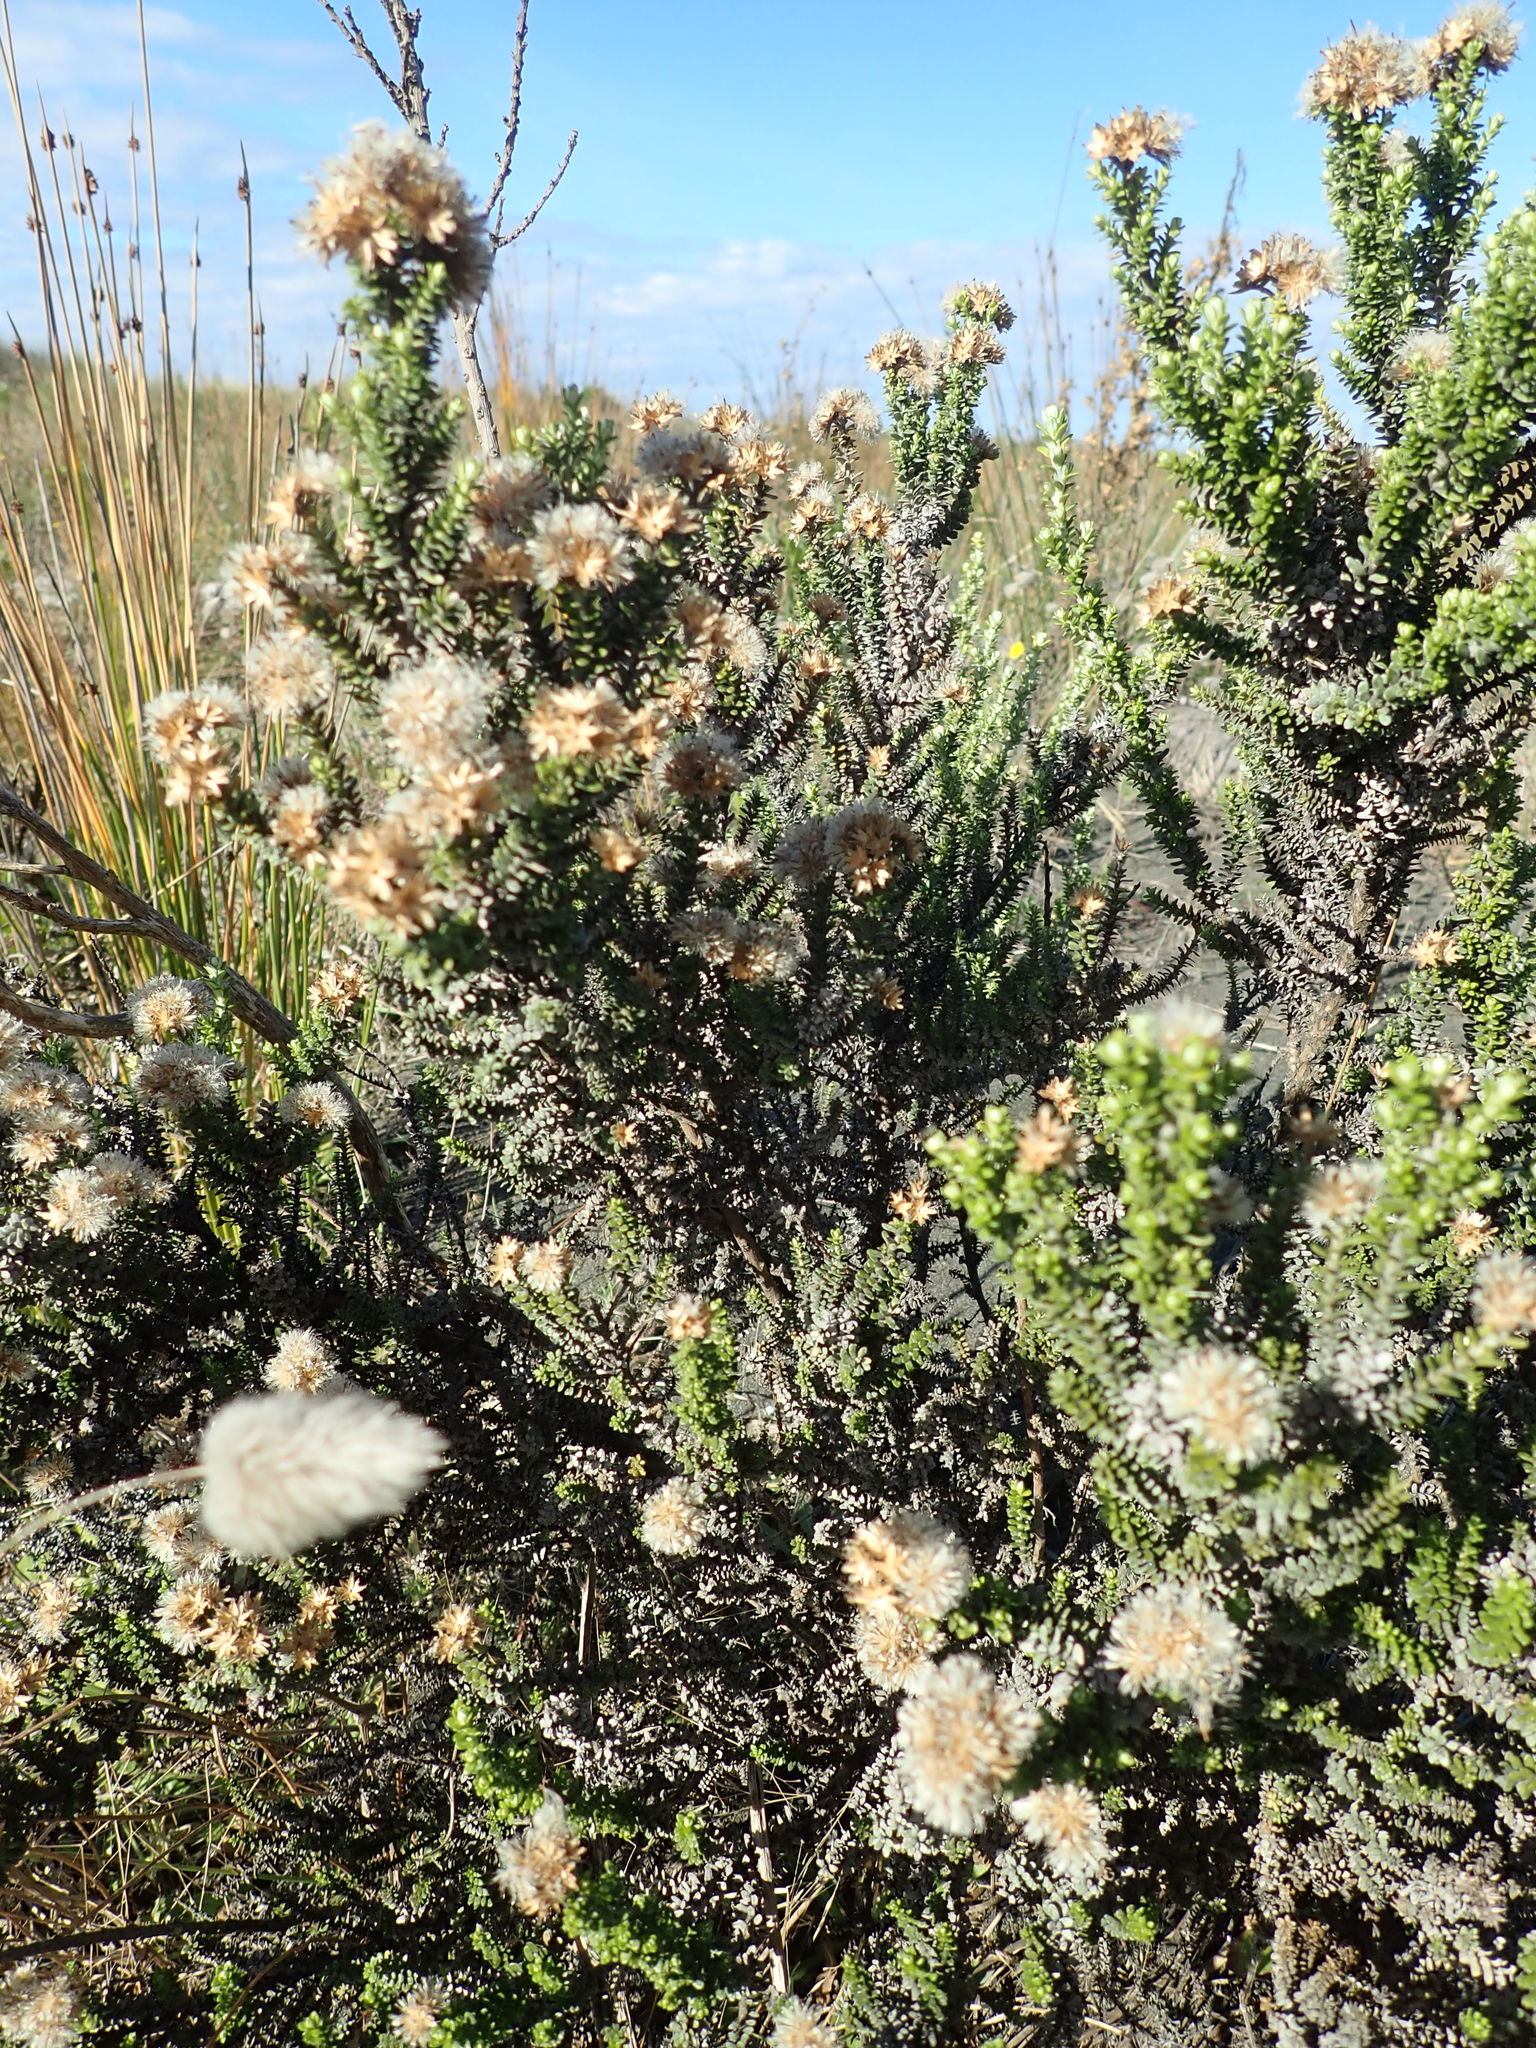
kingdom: Plantae
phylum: Tracheophyta
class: Magnoliopsida
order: Asterales
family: Asteraceae
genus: Ozothamnus
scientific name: Ozothamnus leptophyllus
